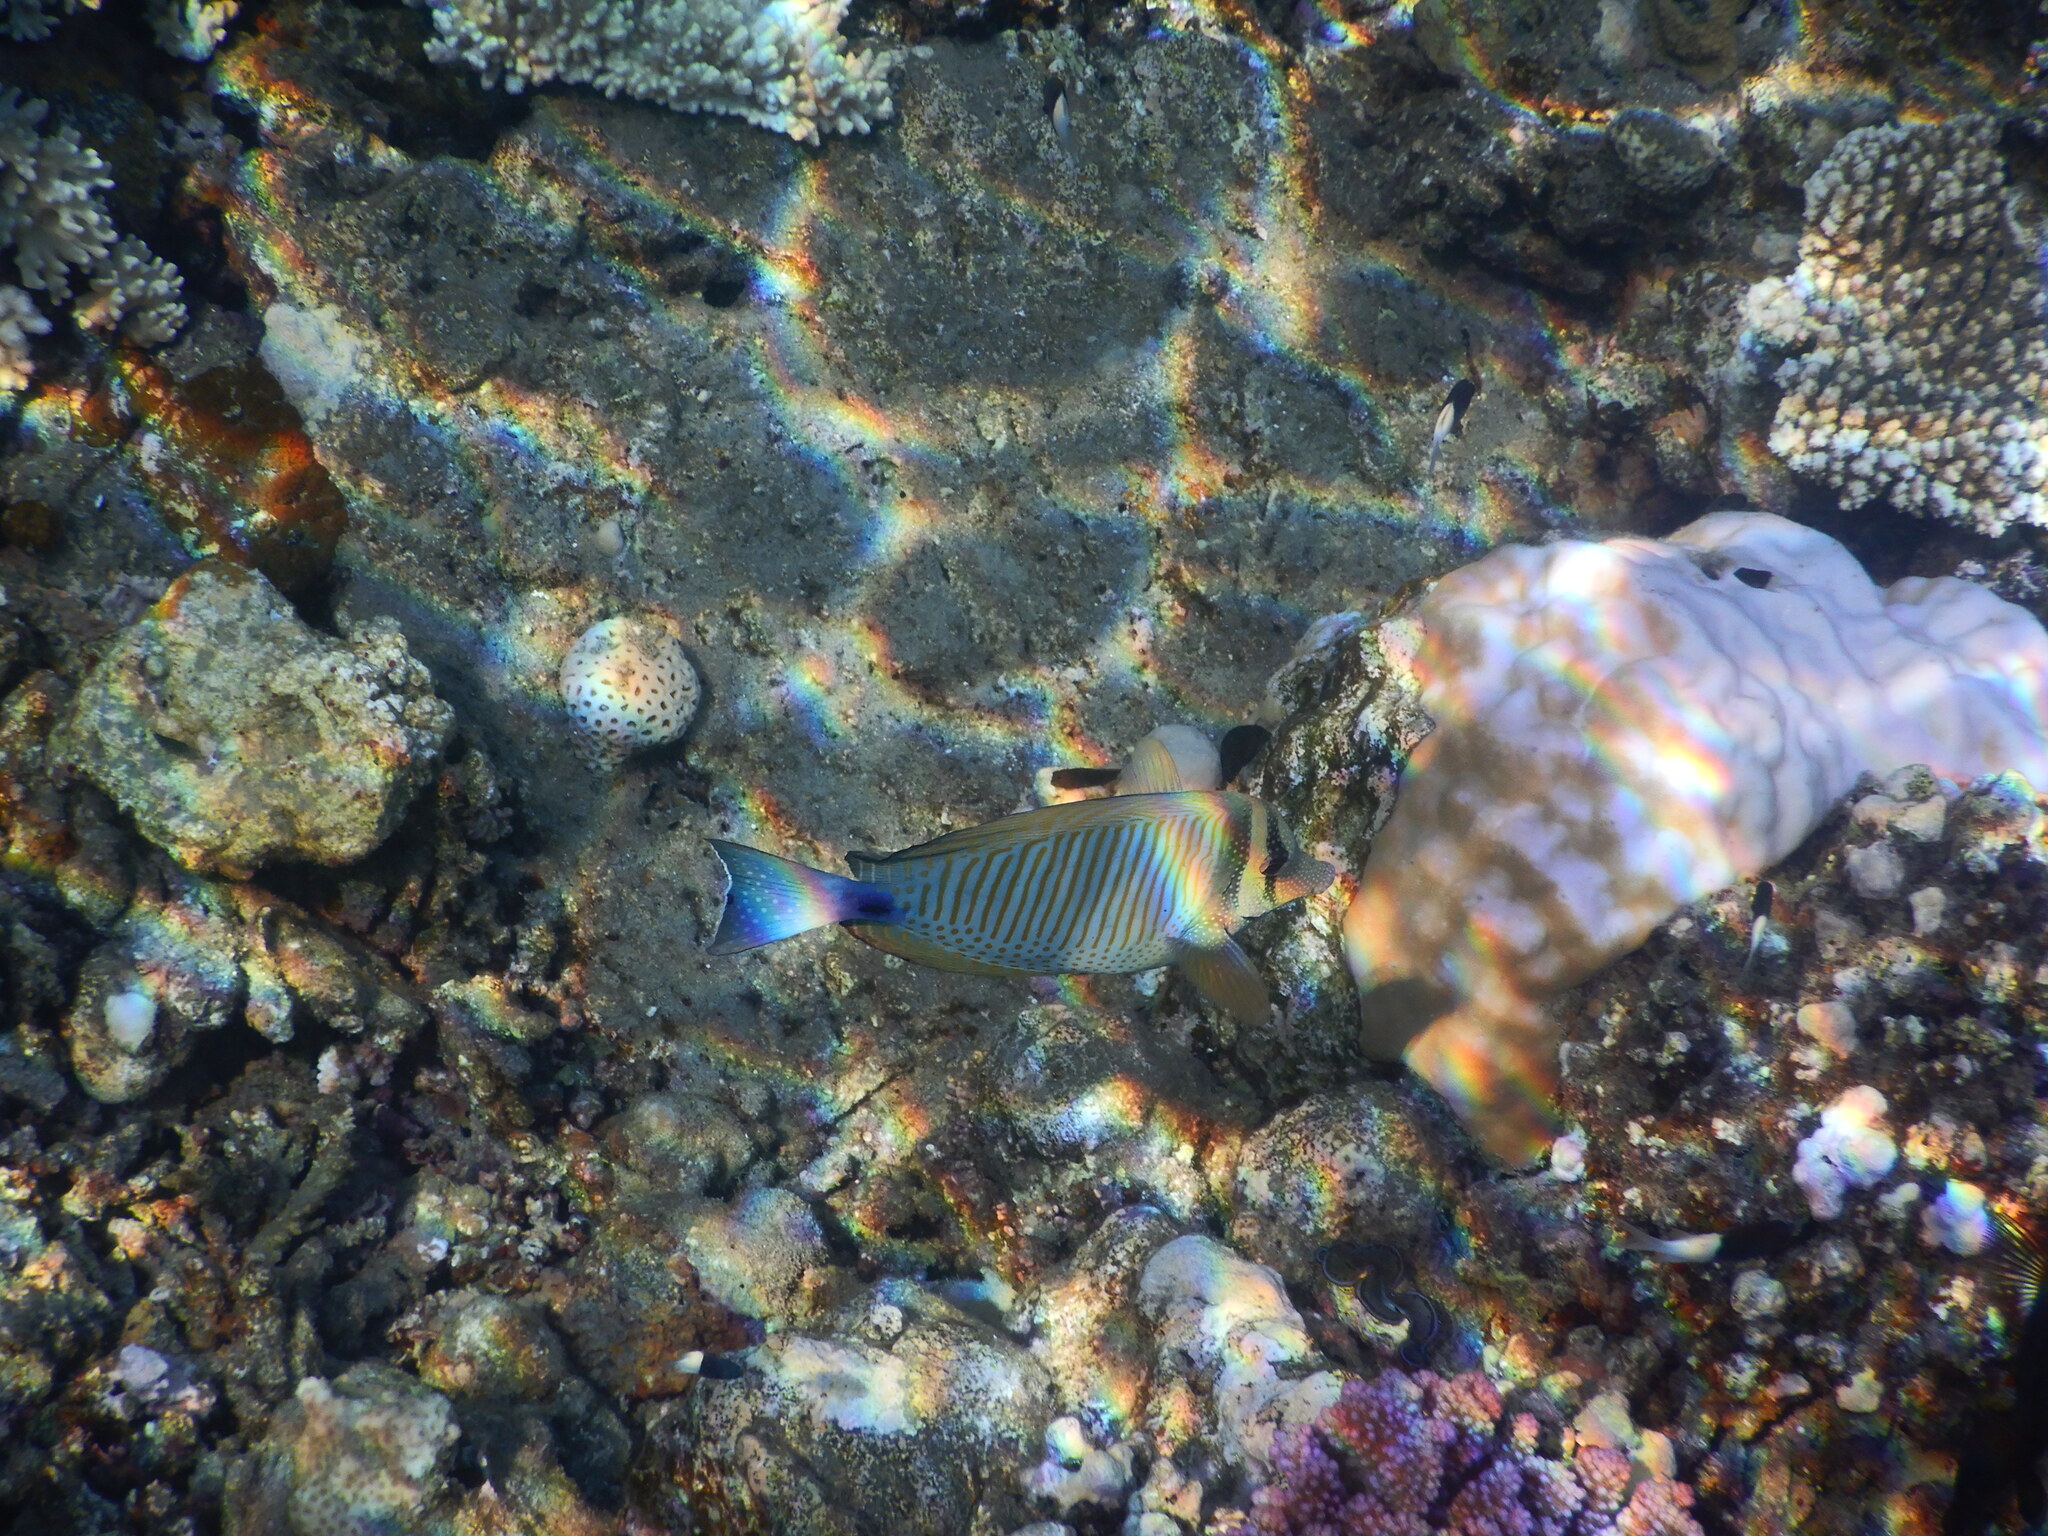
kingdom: Animalia
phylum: Chordata
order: Perciformes
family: Acanthuridae
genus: Zebrasoma
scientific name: Zebrasoma desjardinii
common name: Desjardin's sailfin tang
